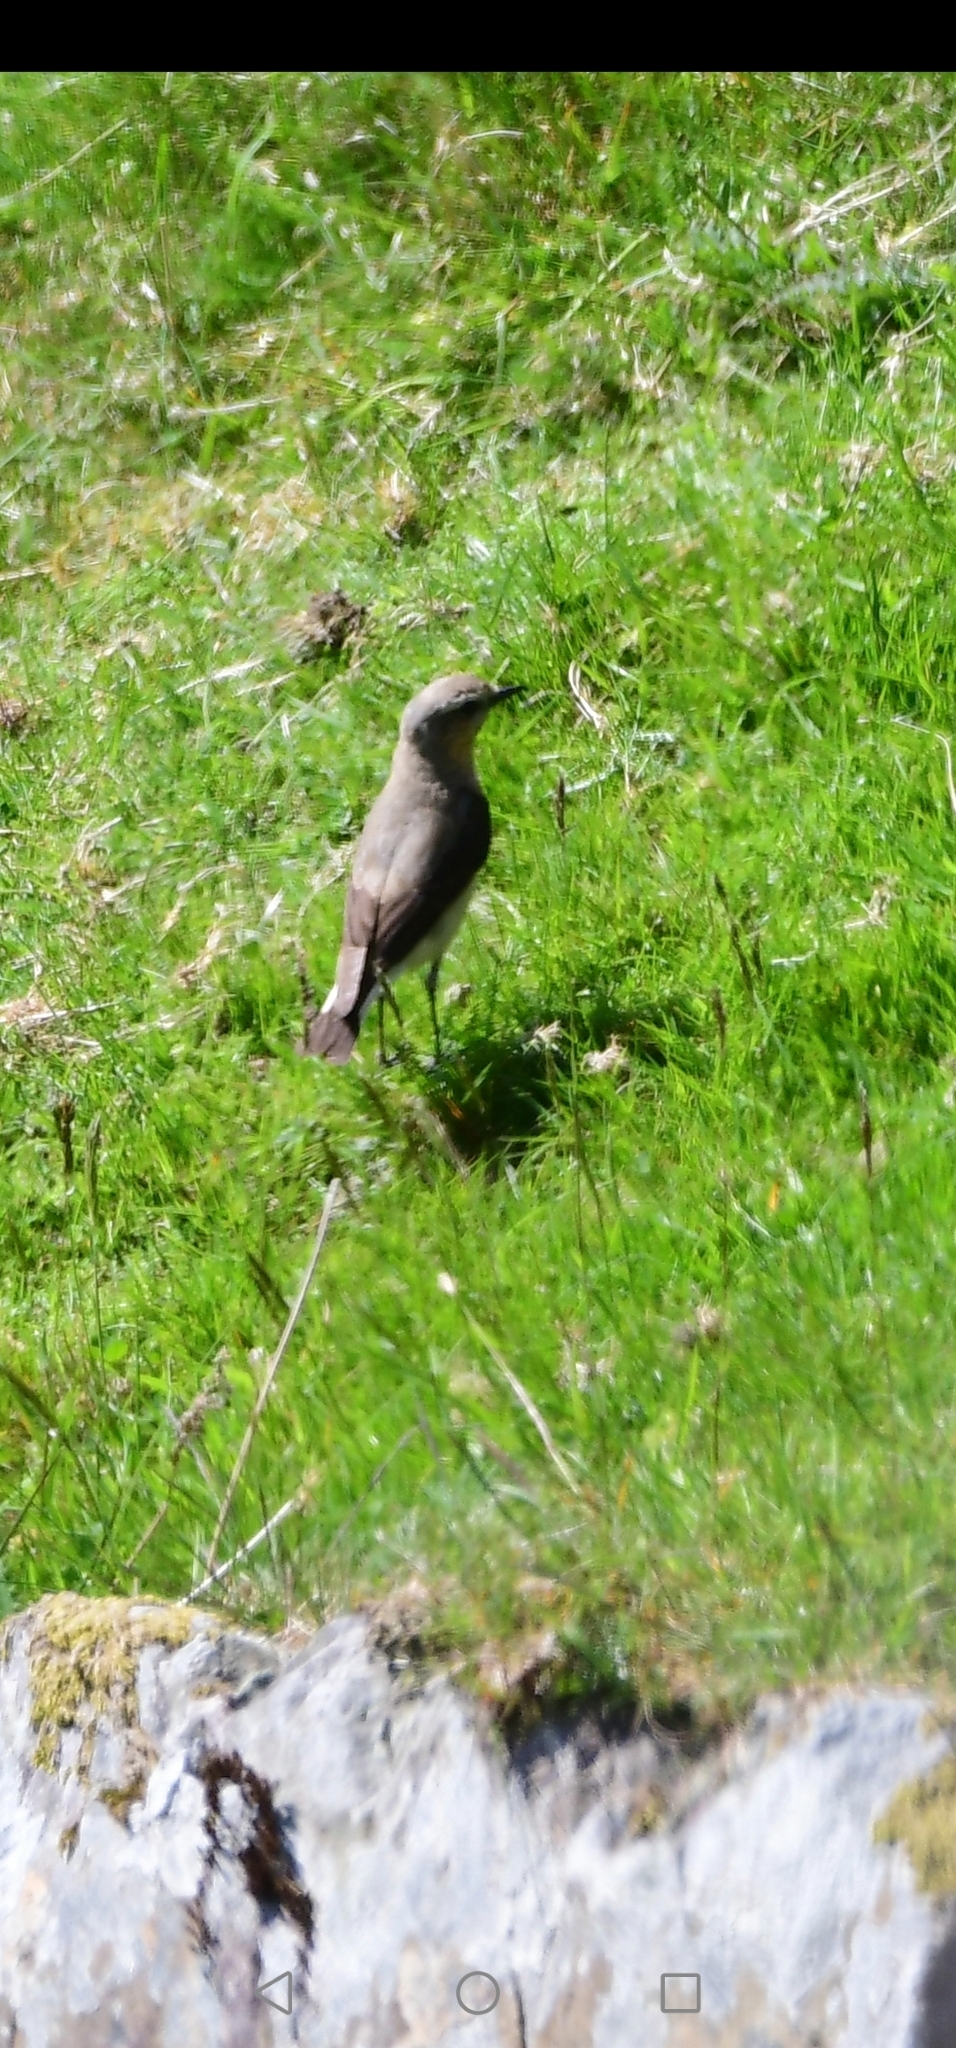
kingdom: Animalia
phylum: Chordata
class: Aves
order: Passeriformes
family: Muscicapidae
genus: Oenanthe
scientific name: Oenanthe oenanthe
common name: Northern wheatear
